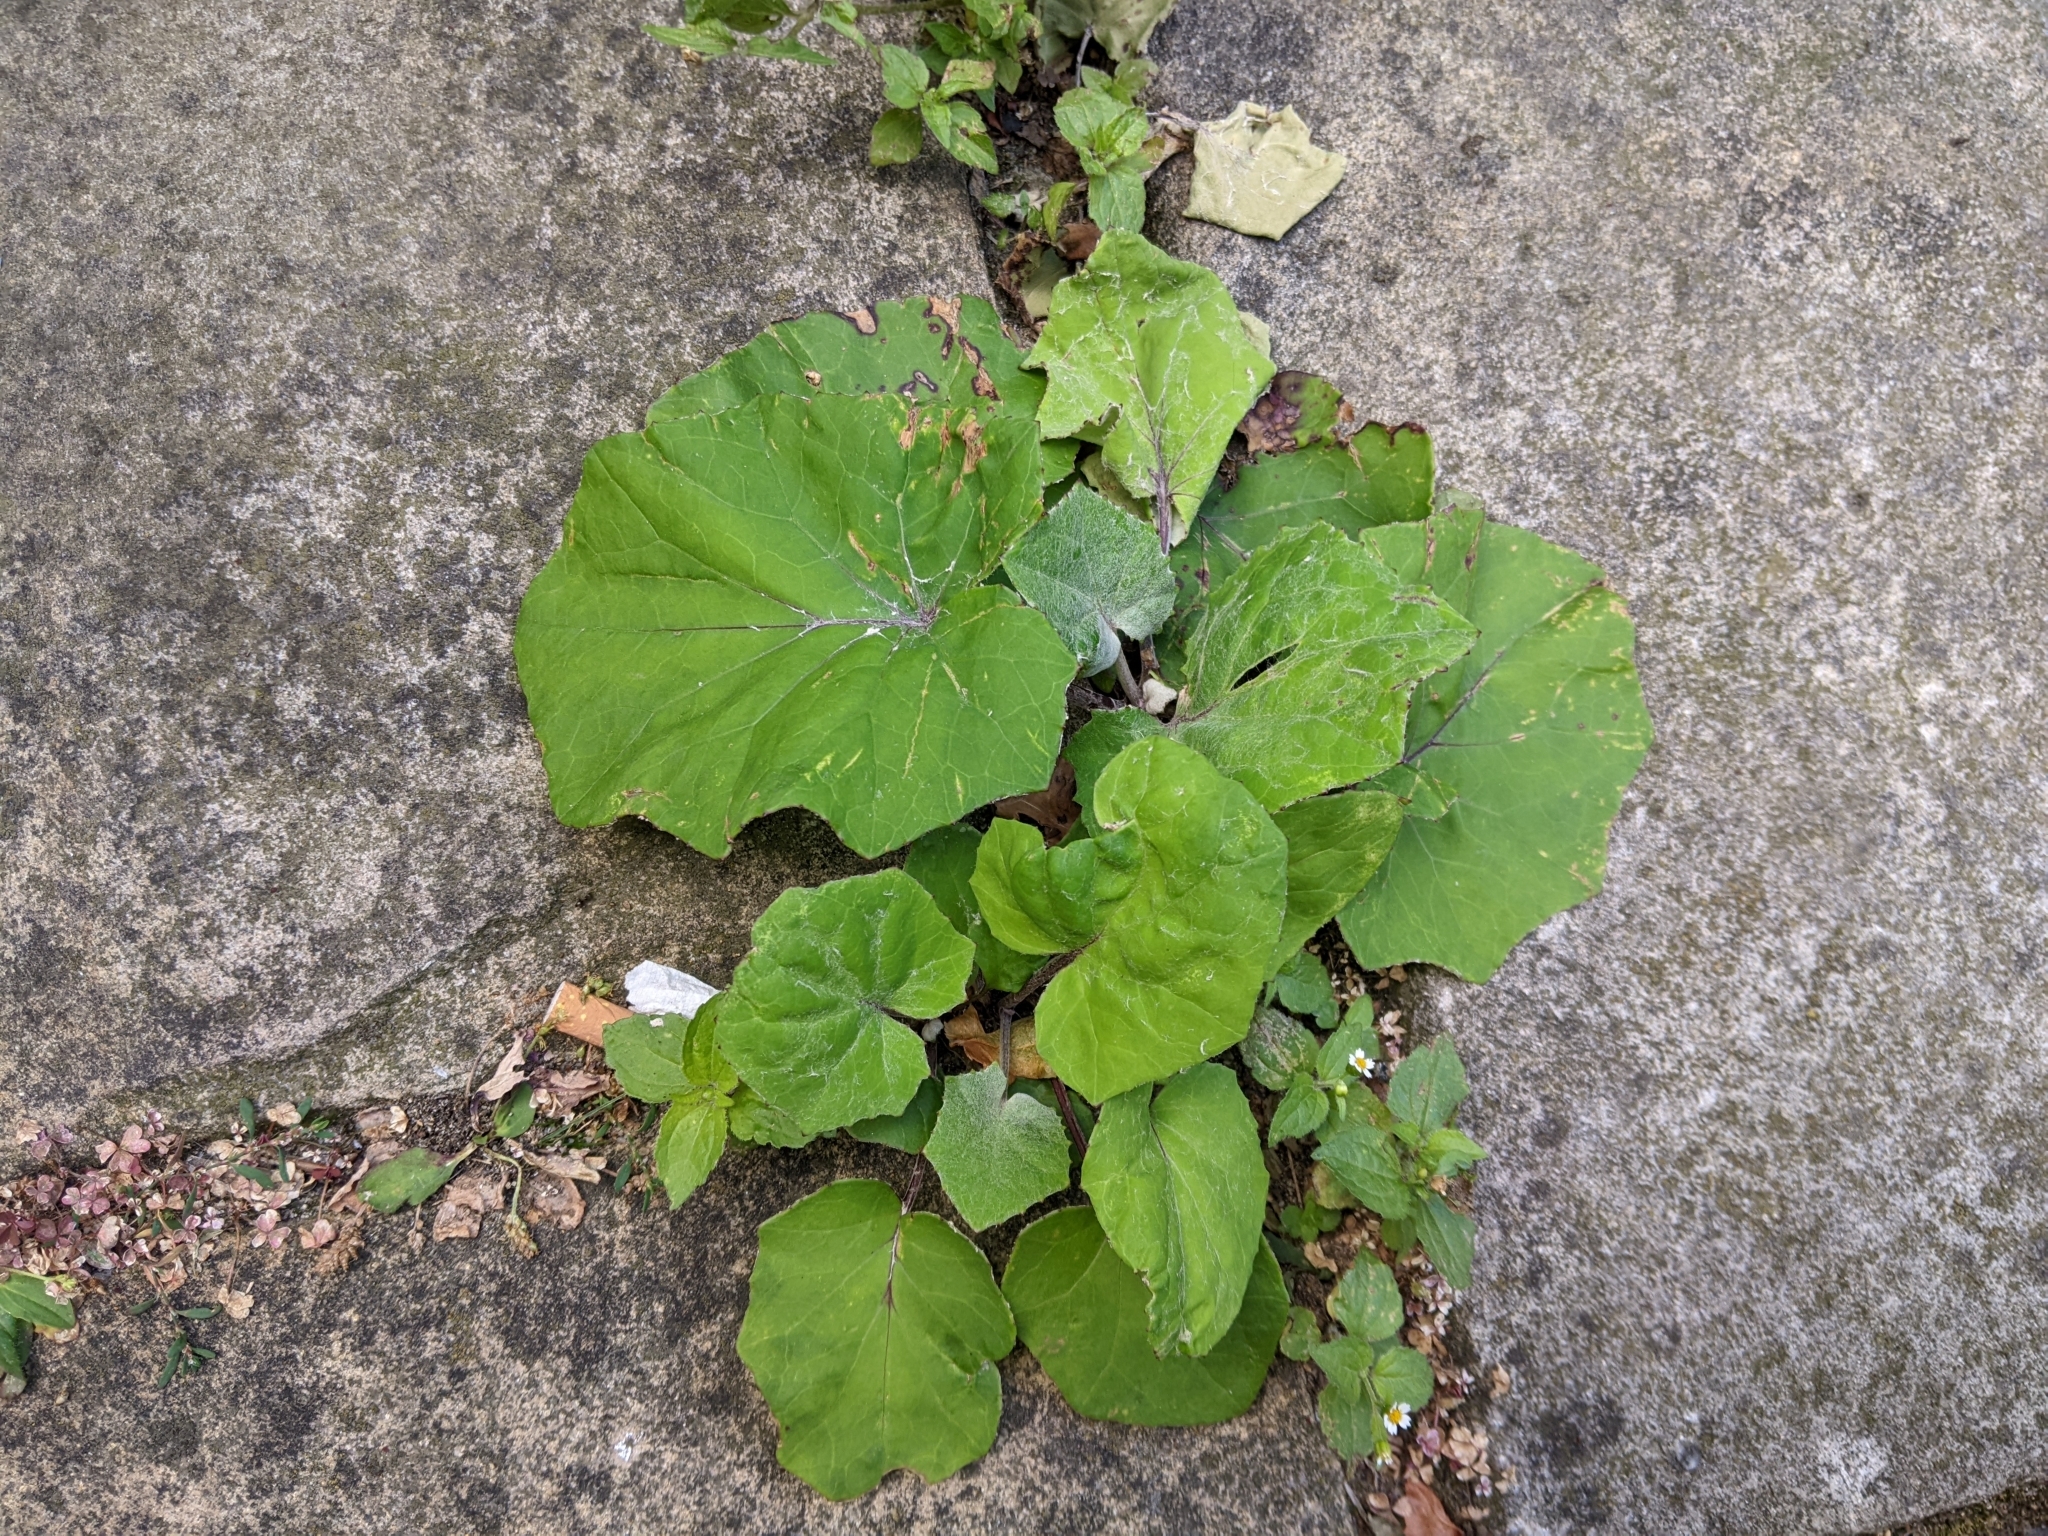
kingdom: Plantae
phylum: Tracheophyta
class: Magnoliopsida
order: Asterales
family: Asteraceae
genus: Tussilago
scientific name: Tussilago farfara
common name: Coltsfoot
